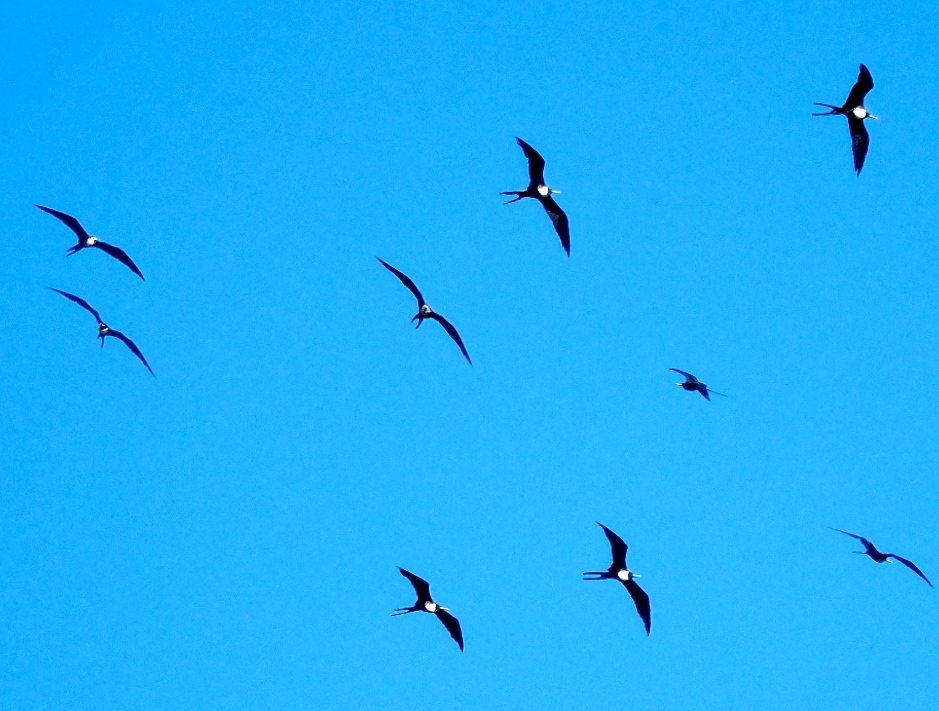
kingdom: Animalia
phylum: Chordata
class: Aves
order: Suliformes
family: Fregatidae
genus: Fregata
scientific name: Fregata magnificens
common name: Magnificent frigatebird
